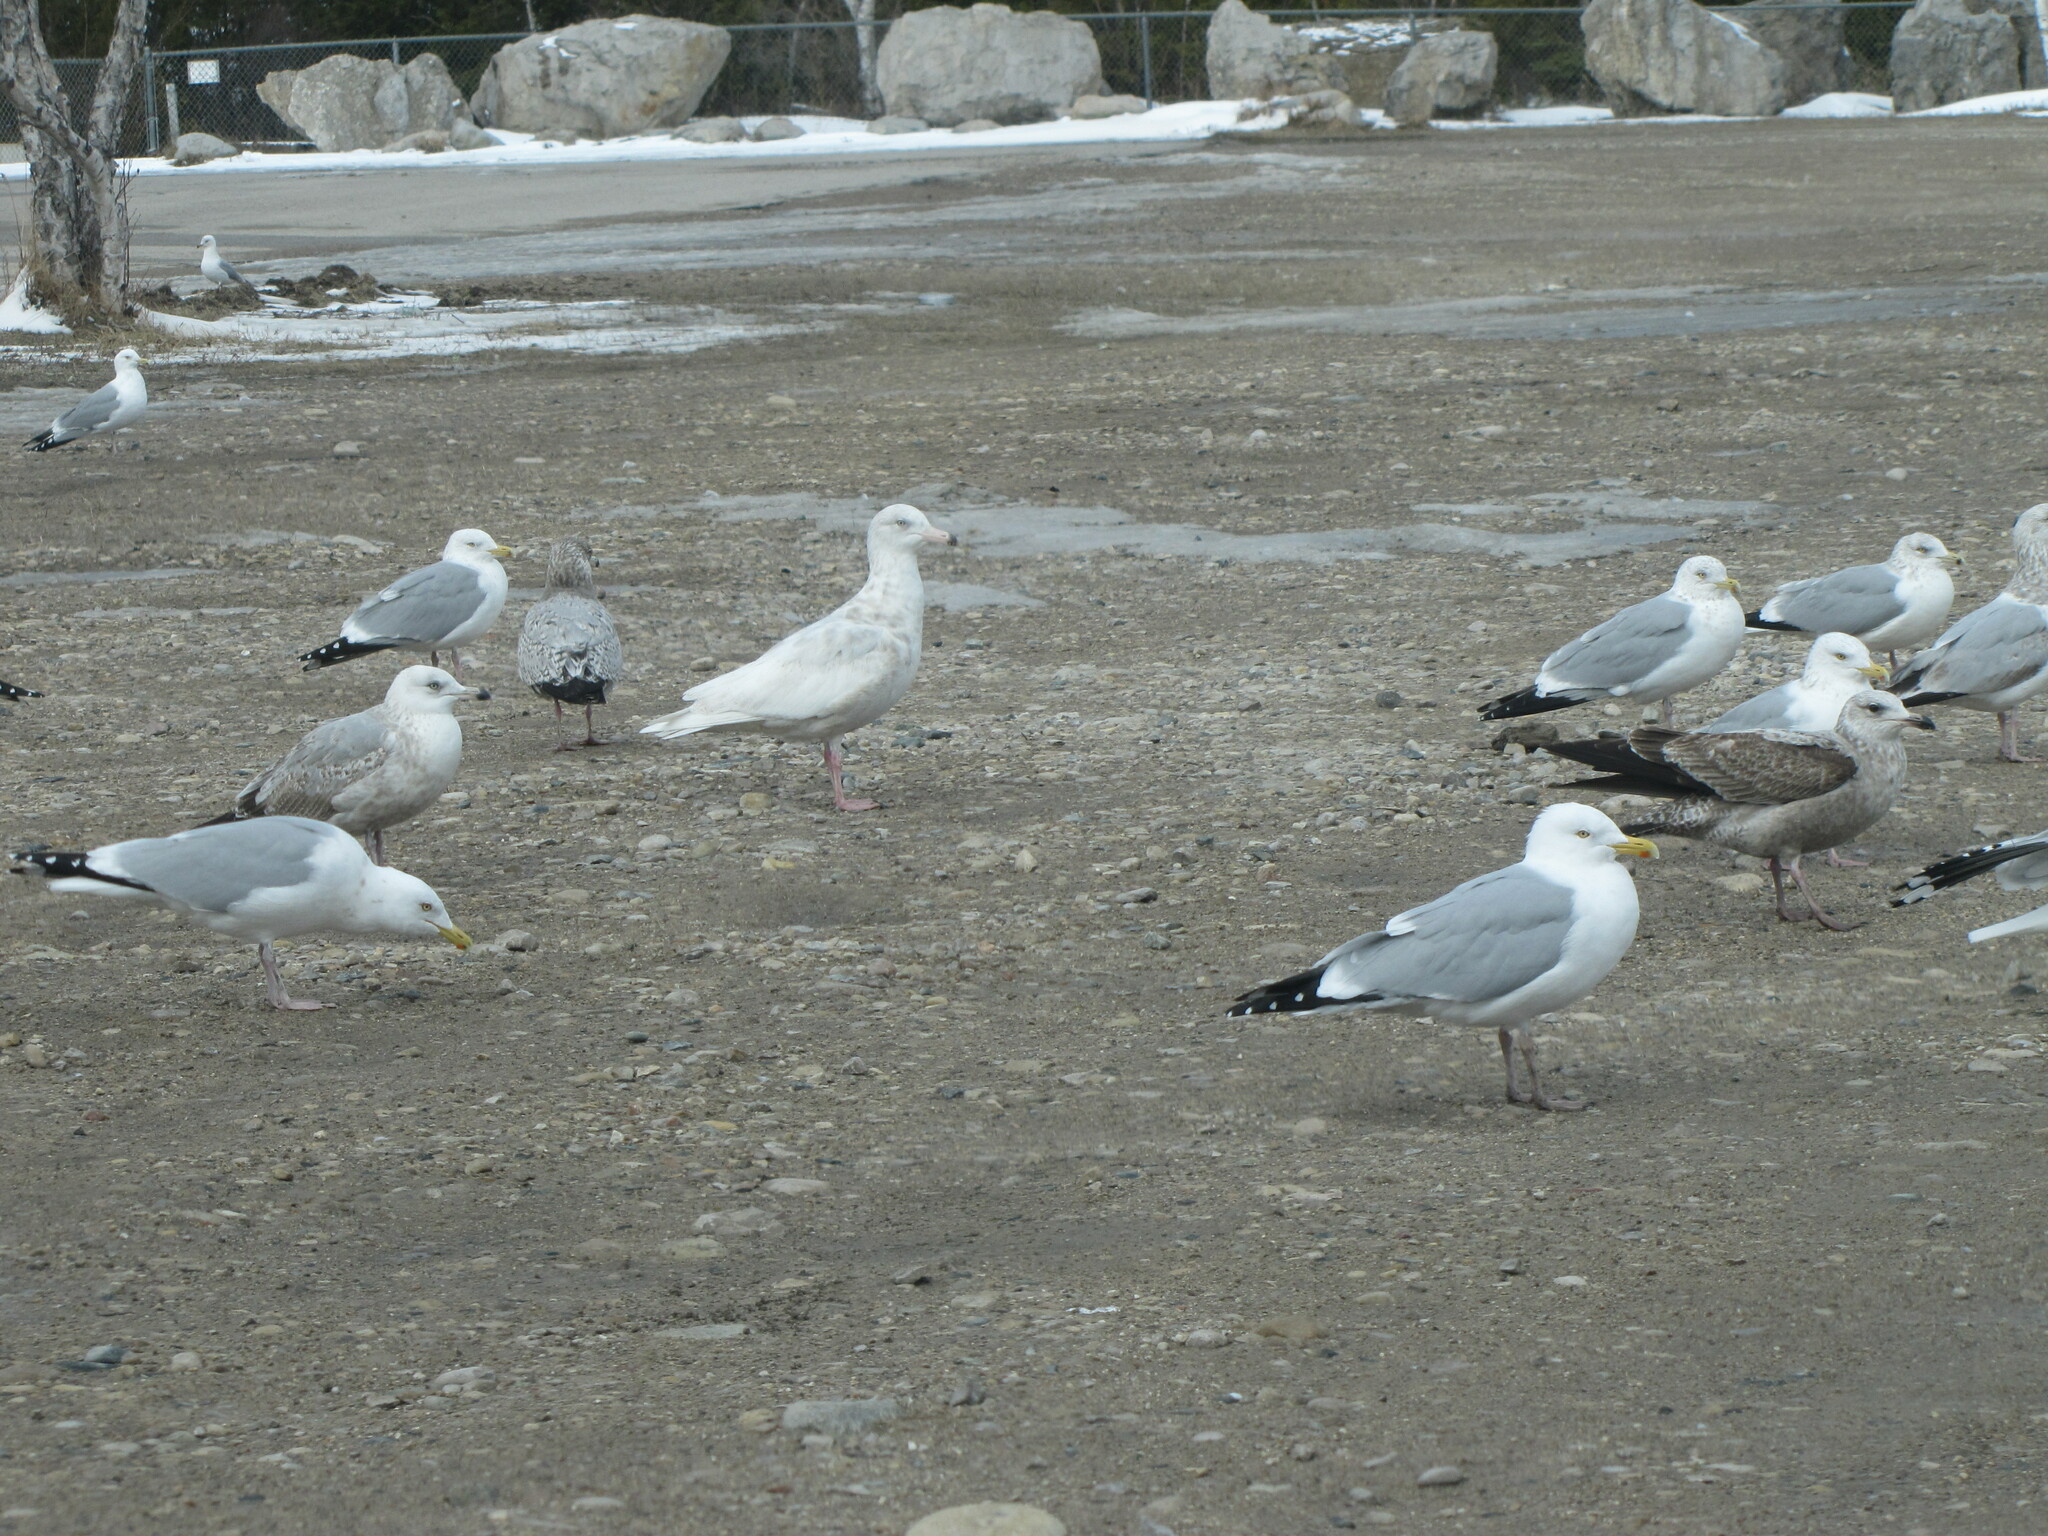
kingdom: Animalia
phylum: Chordata
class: Aves
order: Charadriiformes
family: Laridae
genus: Larus
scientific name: Larus hyperboreus
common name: Glaucous gull
